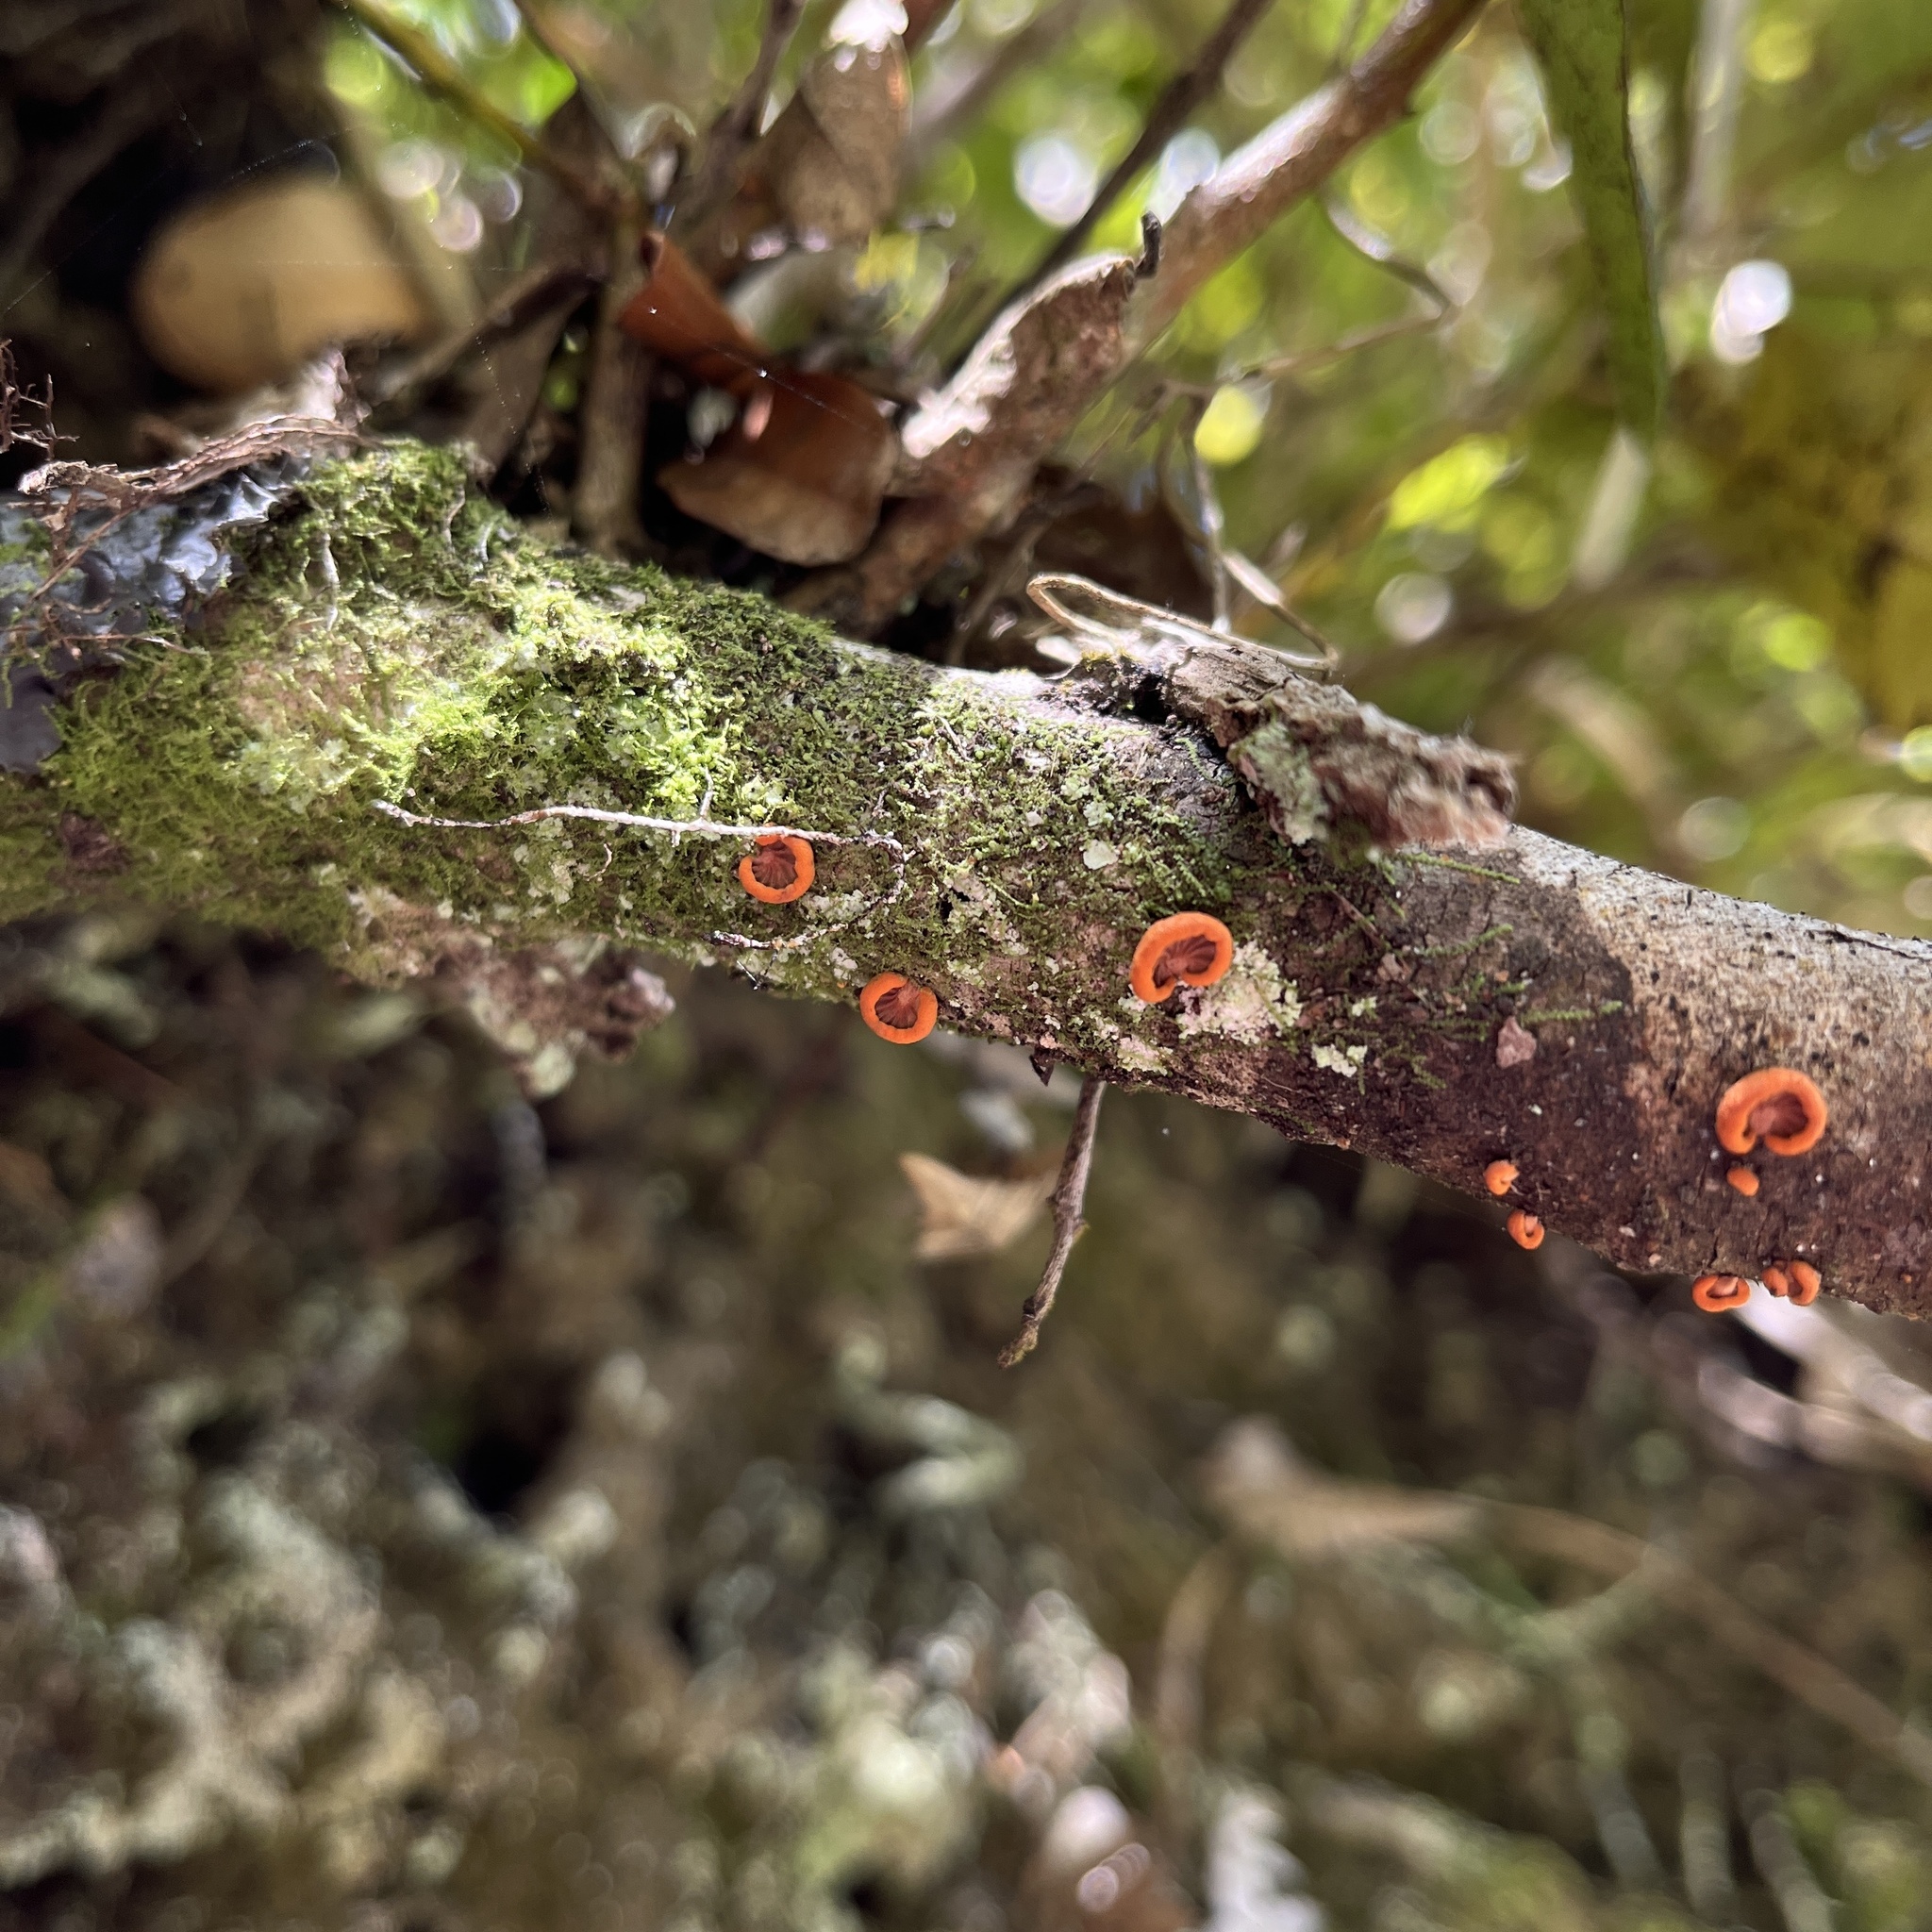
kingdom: Fungi
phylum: Basidiomycota
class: Agaricomycetes
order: Agaricales
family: Omphalotaceae
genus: Anthracophyllum
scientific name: Anthracophyllum discolor
